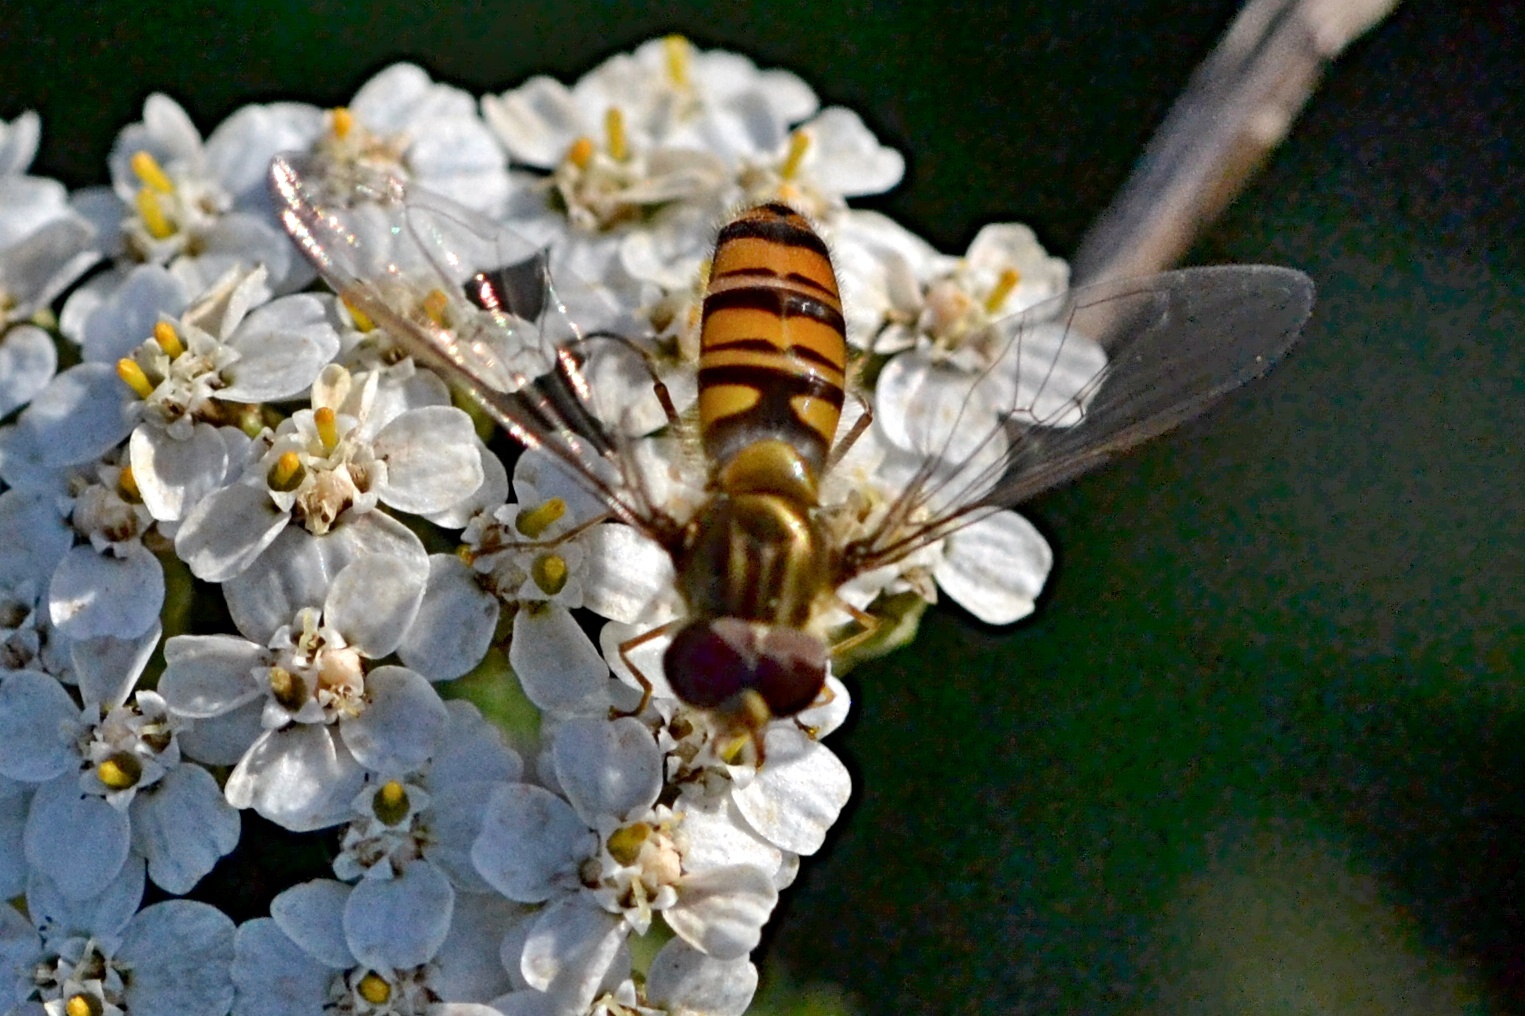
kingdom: Animalia
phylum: Arthropoda
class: Insecta
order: Diptera
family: Syrphidae
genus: Episyrphus
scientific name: Episyrphus balteatus
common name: Marmalade hoverfly
